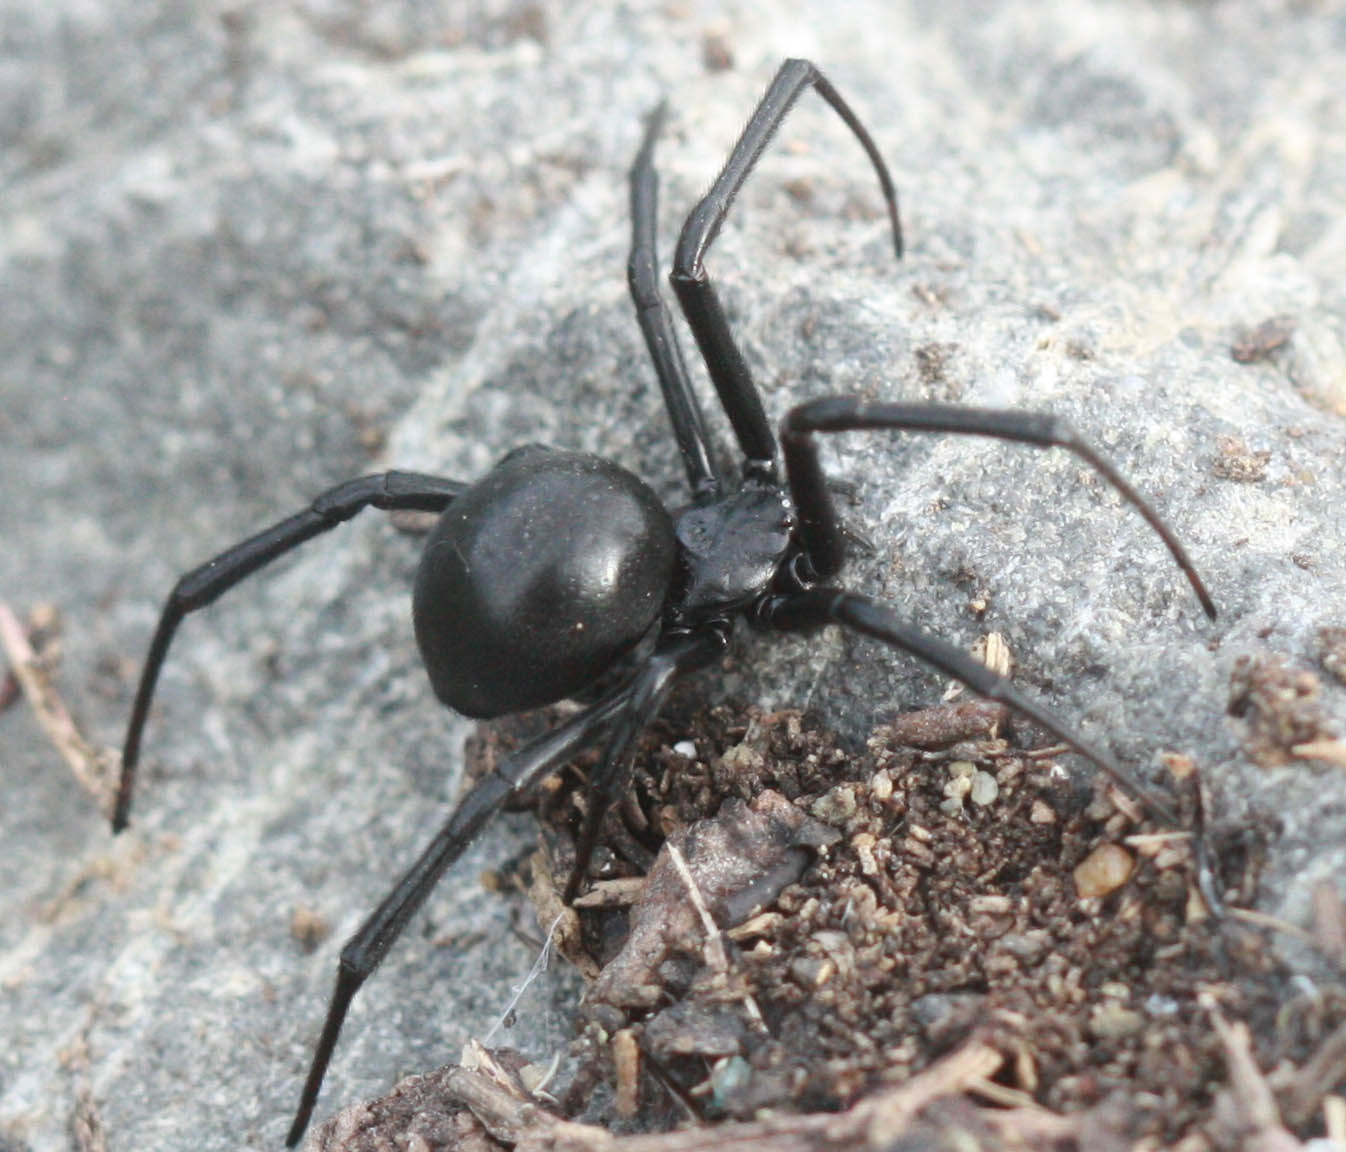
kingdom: Animalia
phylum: Arthropoda
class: Arachnida
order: Araneae
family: Theridiidae
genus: Latrodectus
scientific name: Latrodectus hesperus
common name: Western black widow
